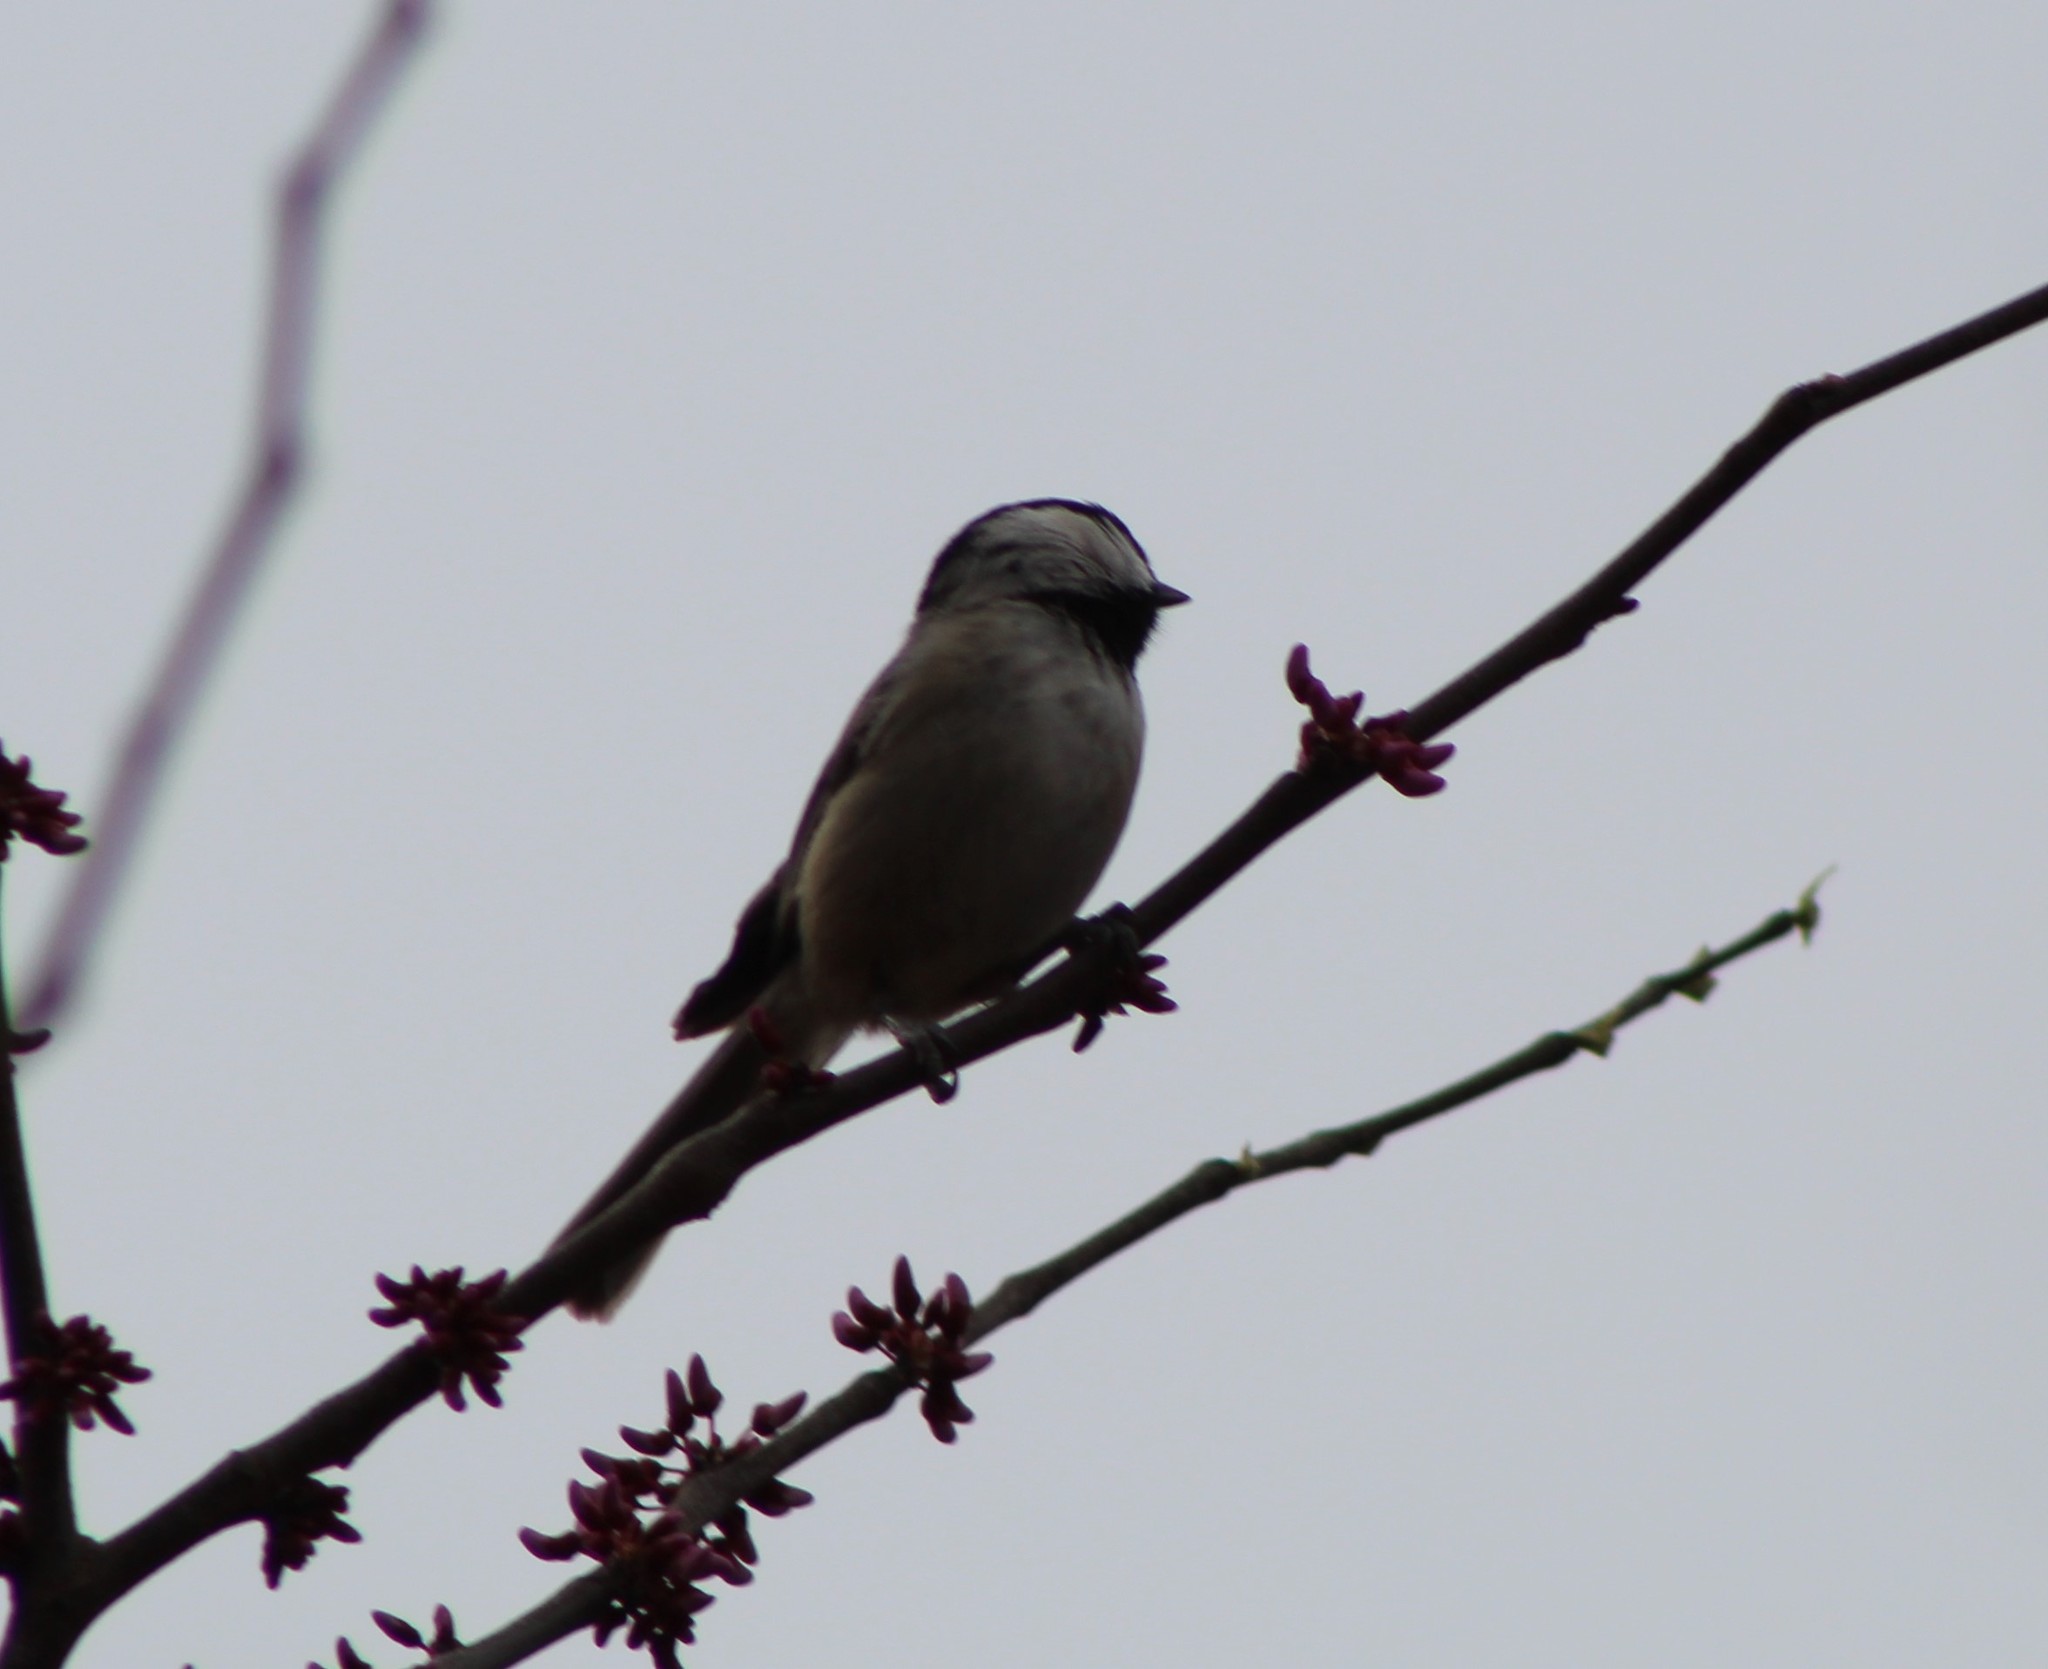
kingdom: Animalia
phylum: Chordata
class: Aves
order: Passeriformes
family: Paridae
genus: Poecile
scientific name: Poecile carolinensis
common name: Carolina chickadee
